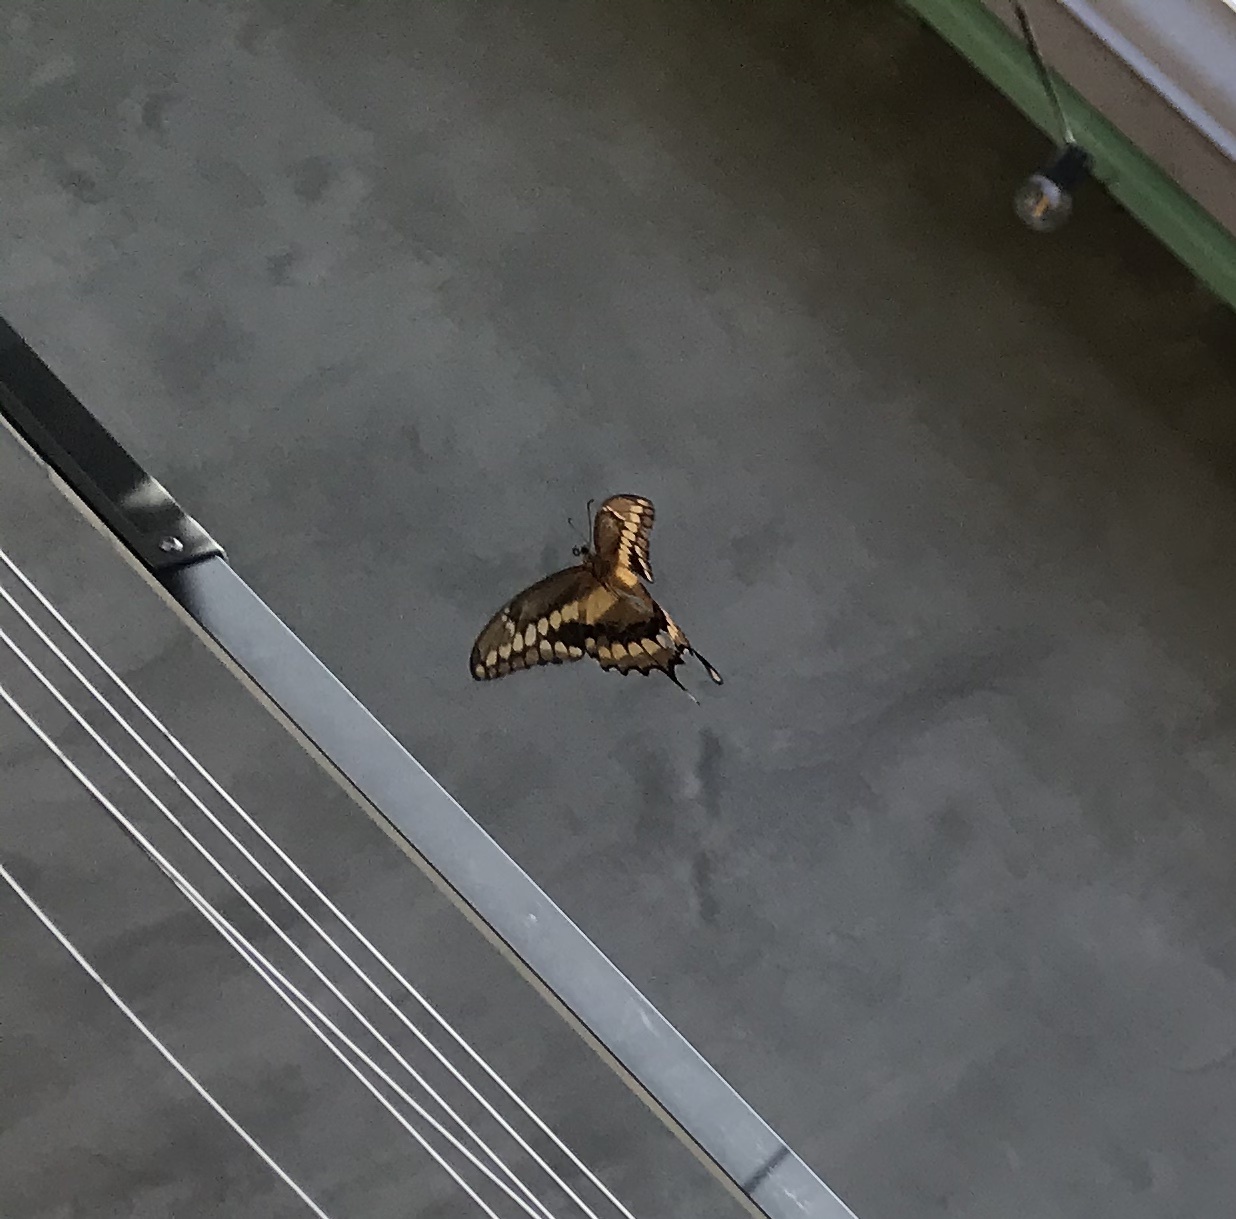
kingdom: Animalia
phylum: Arthropoda
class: Insecta
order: Lepidoptera
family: Papilionidae
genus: Papilio
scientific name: Papilio rumiko
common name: Western giant swallowtail
